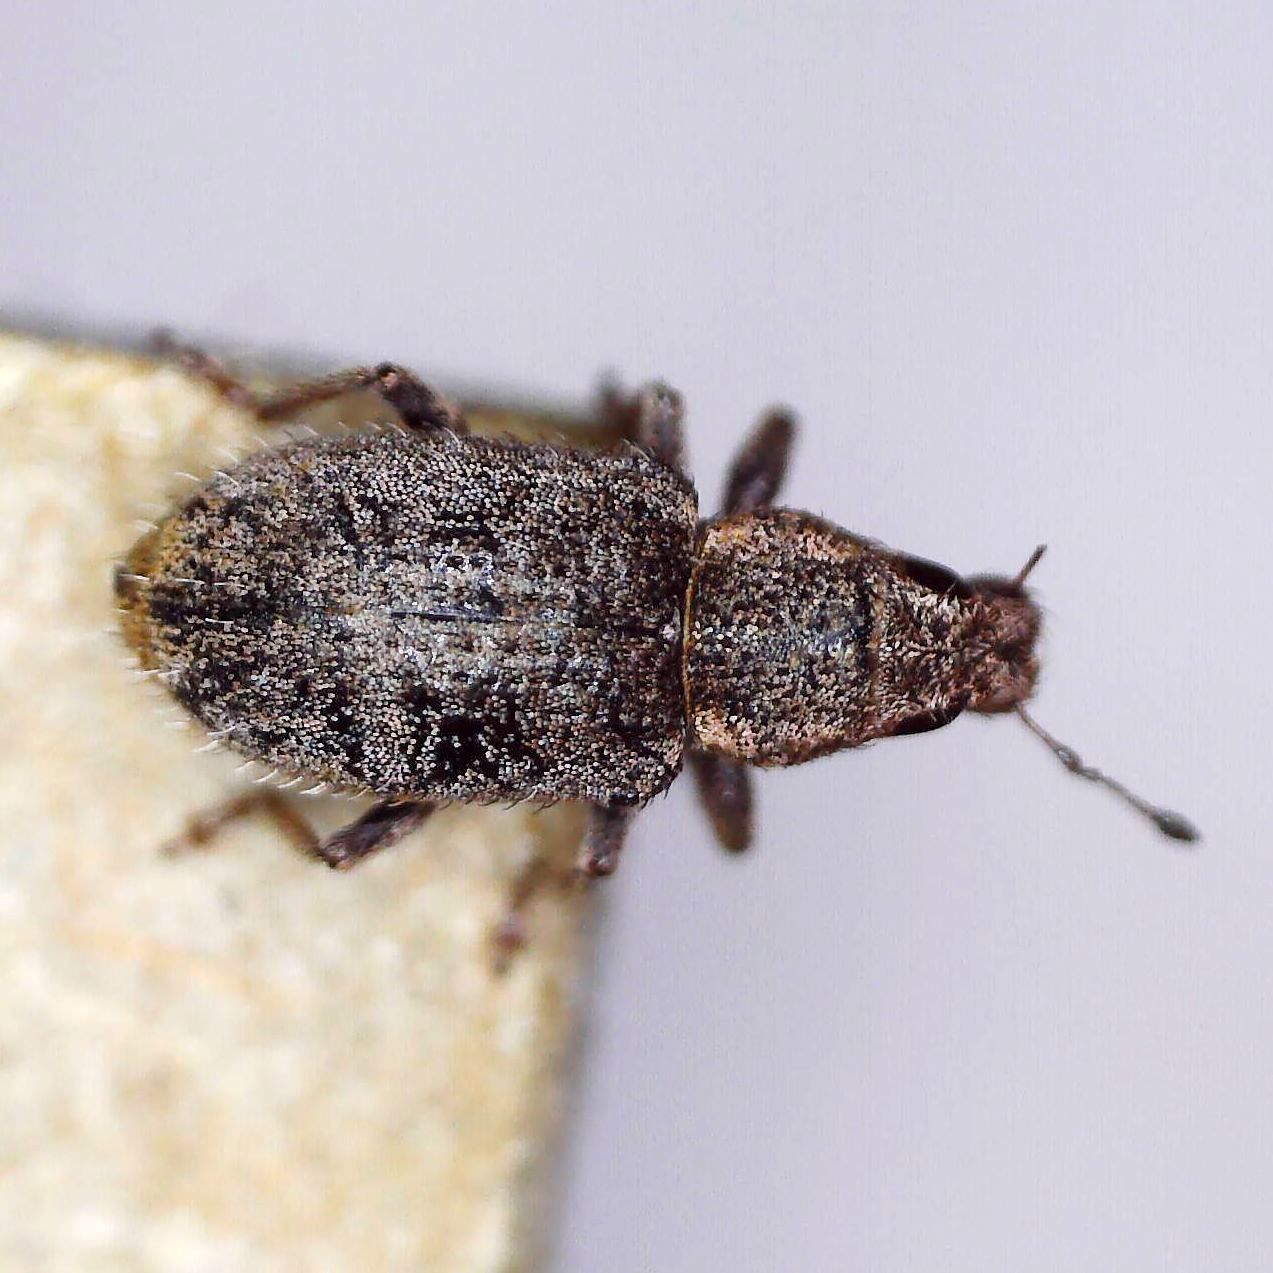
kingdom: Animalia
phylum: Arthropoda
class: Insecta
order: Coleoptera
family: Curculionidae
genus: Sitona
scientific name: Sitona hispidulus
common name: Clover weevil
